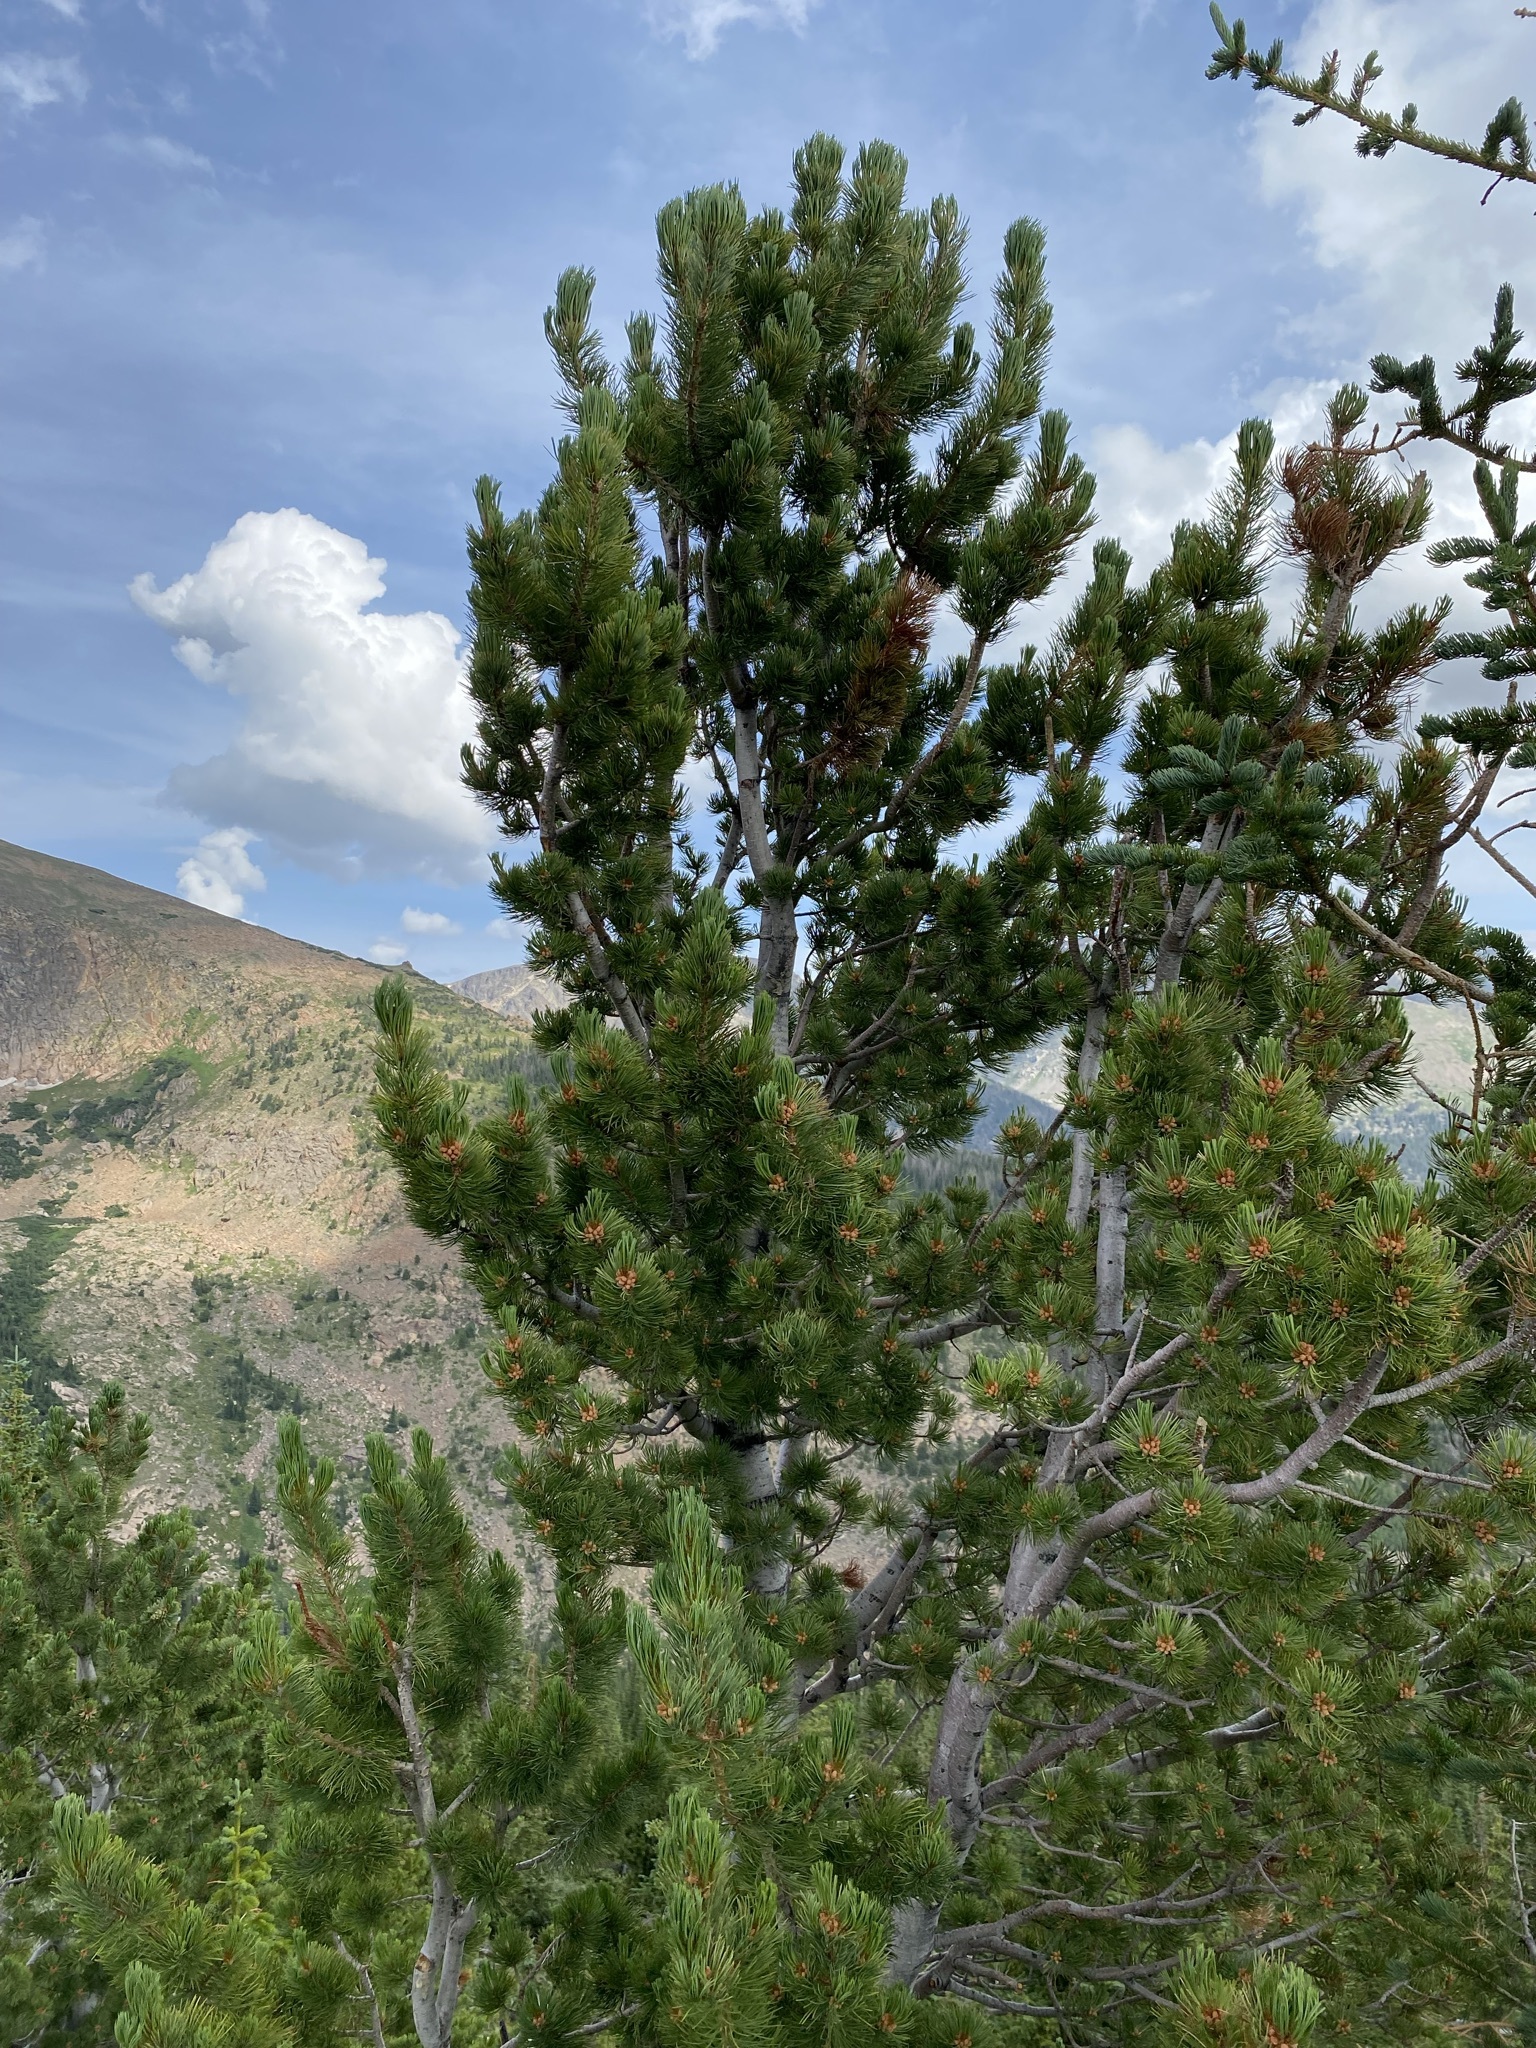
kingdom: Plantae
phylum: Tracheophyta
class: Pinopsida
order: Pinales
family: Pinaceae
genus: Pinus
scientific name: Pinus flexilis
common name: Limber pine
